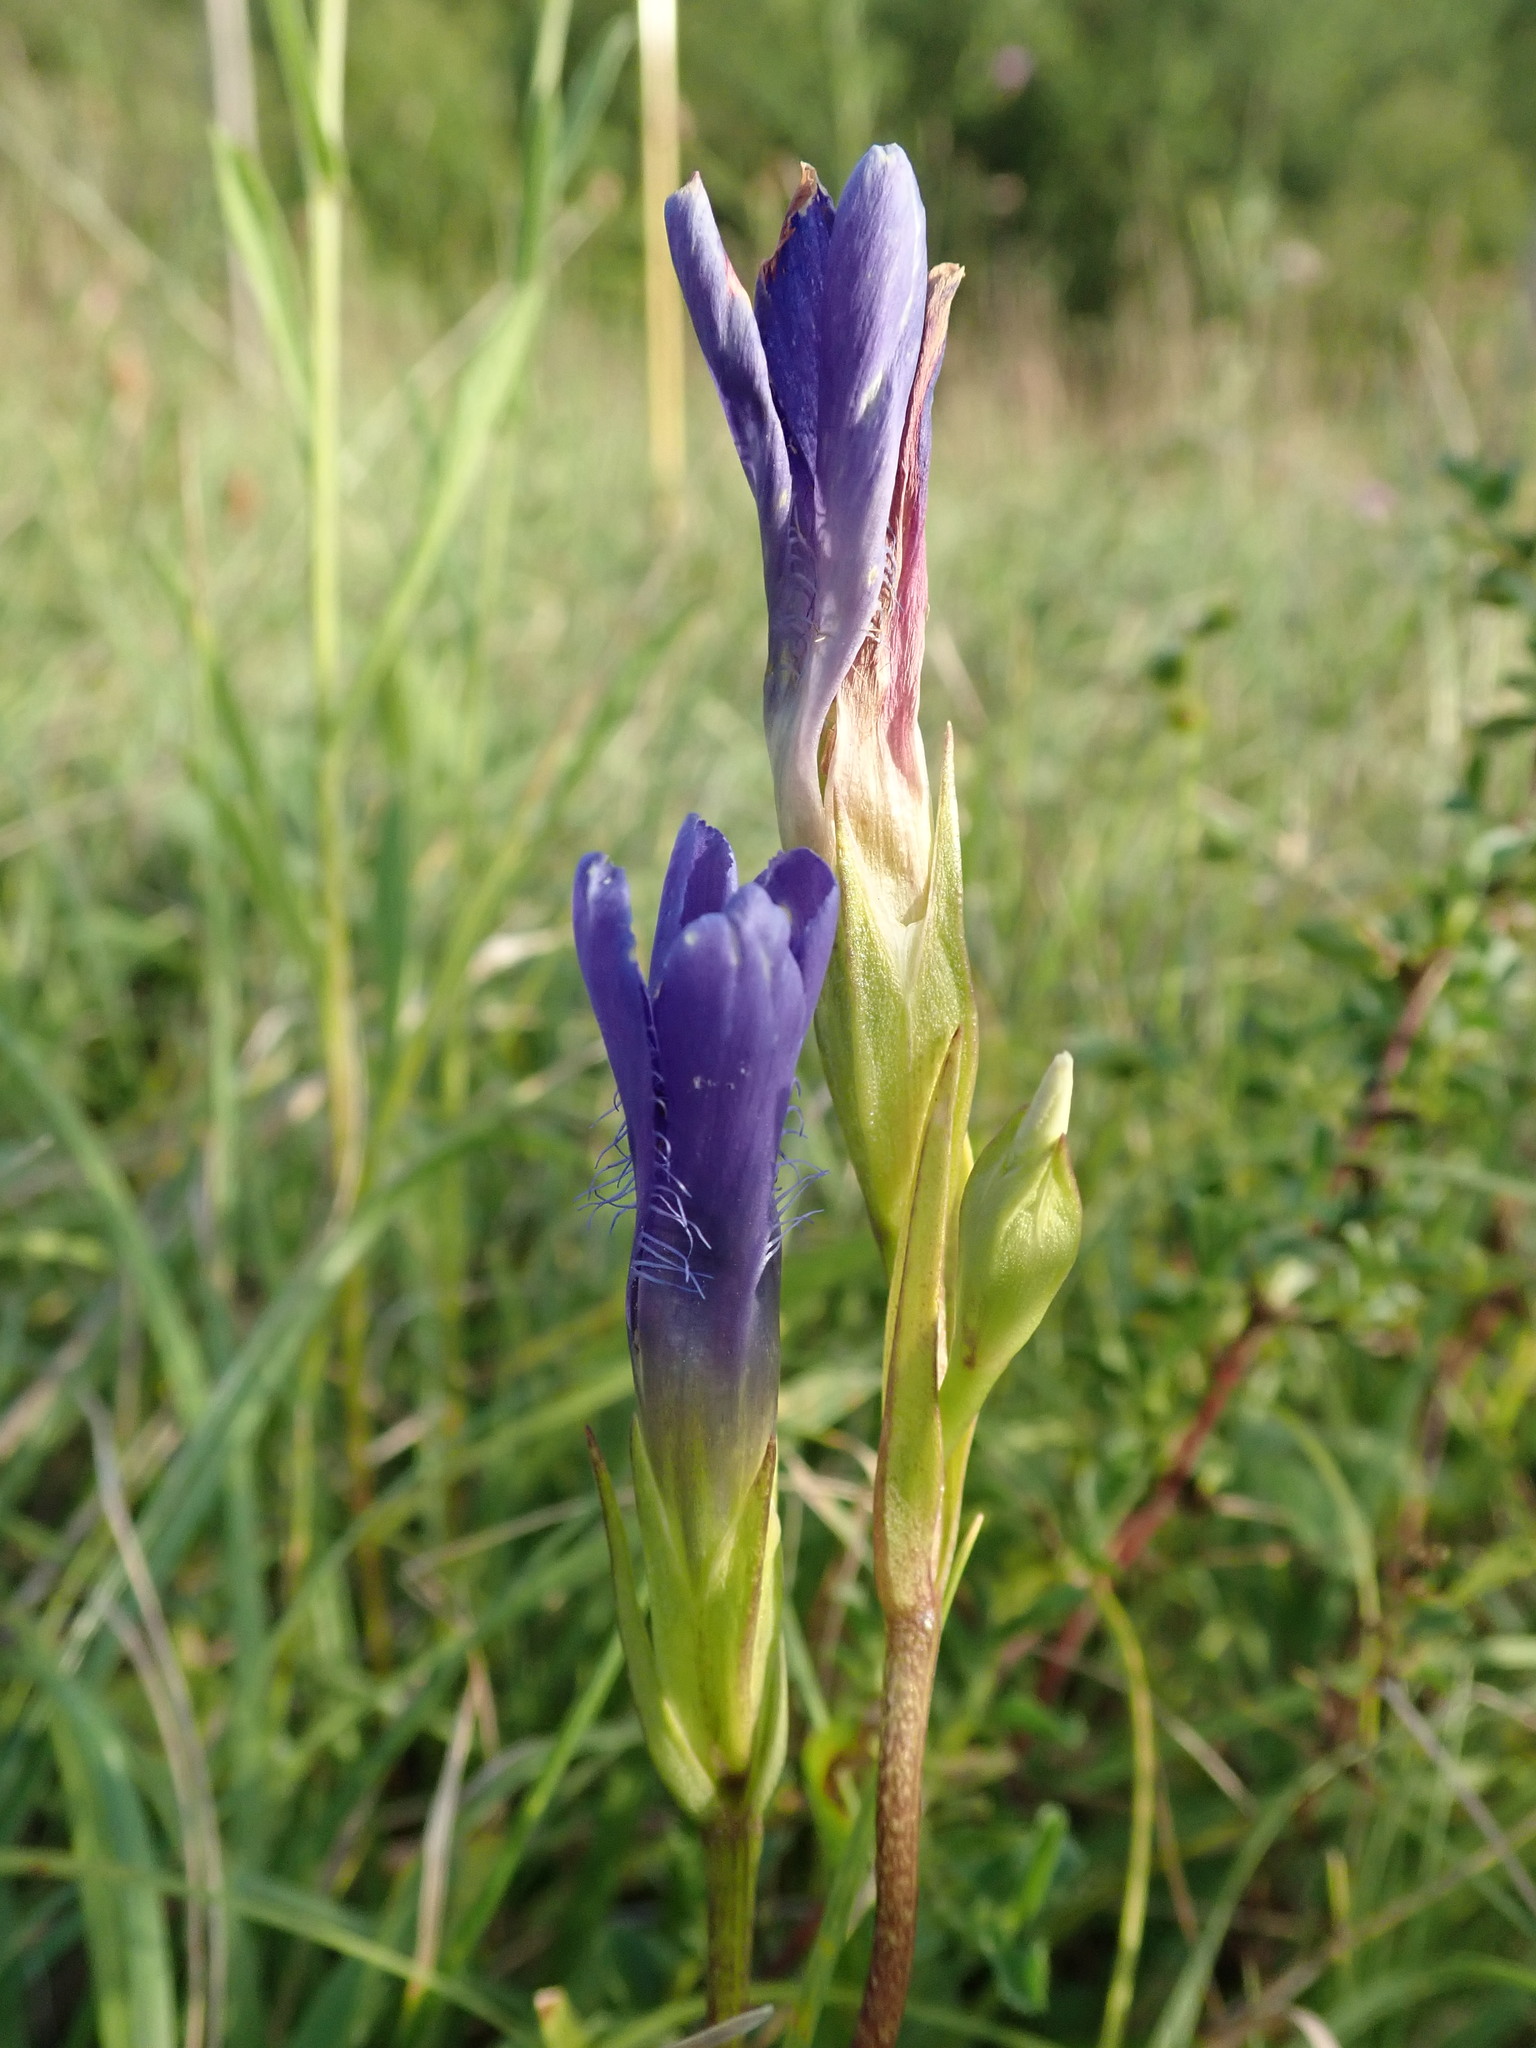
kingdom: Plantae
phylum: Tracheophyta
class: Magnoliopsida
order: Gentianales
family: Gentianaceae
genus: Gentianopsis
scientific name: Gentianopsis ciliata
